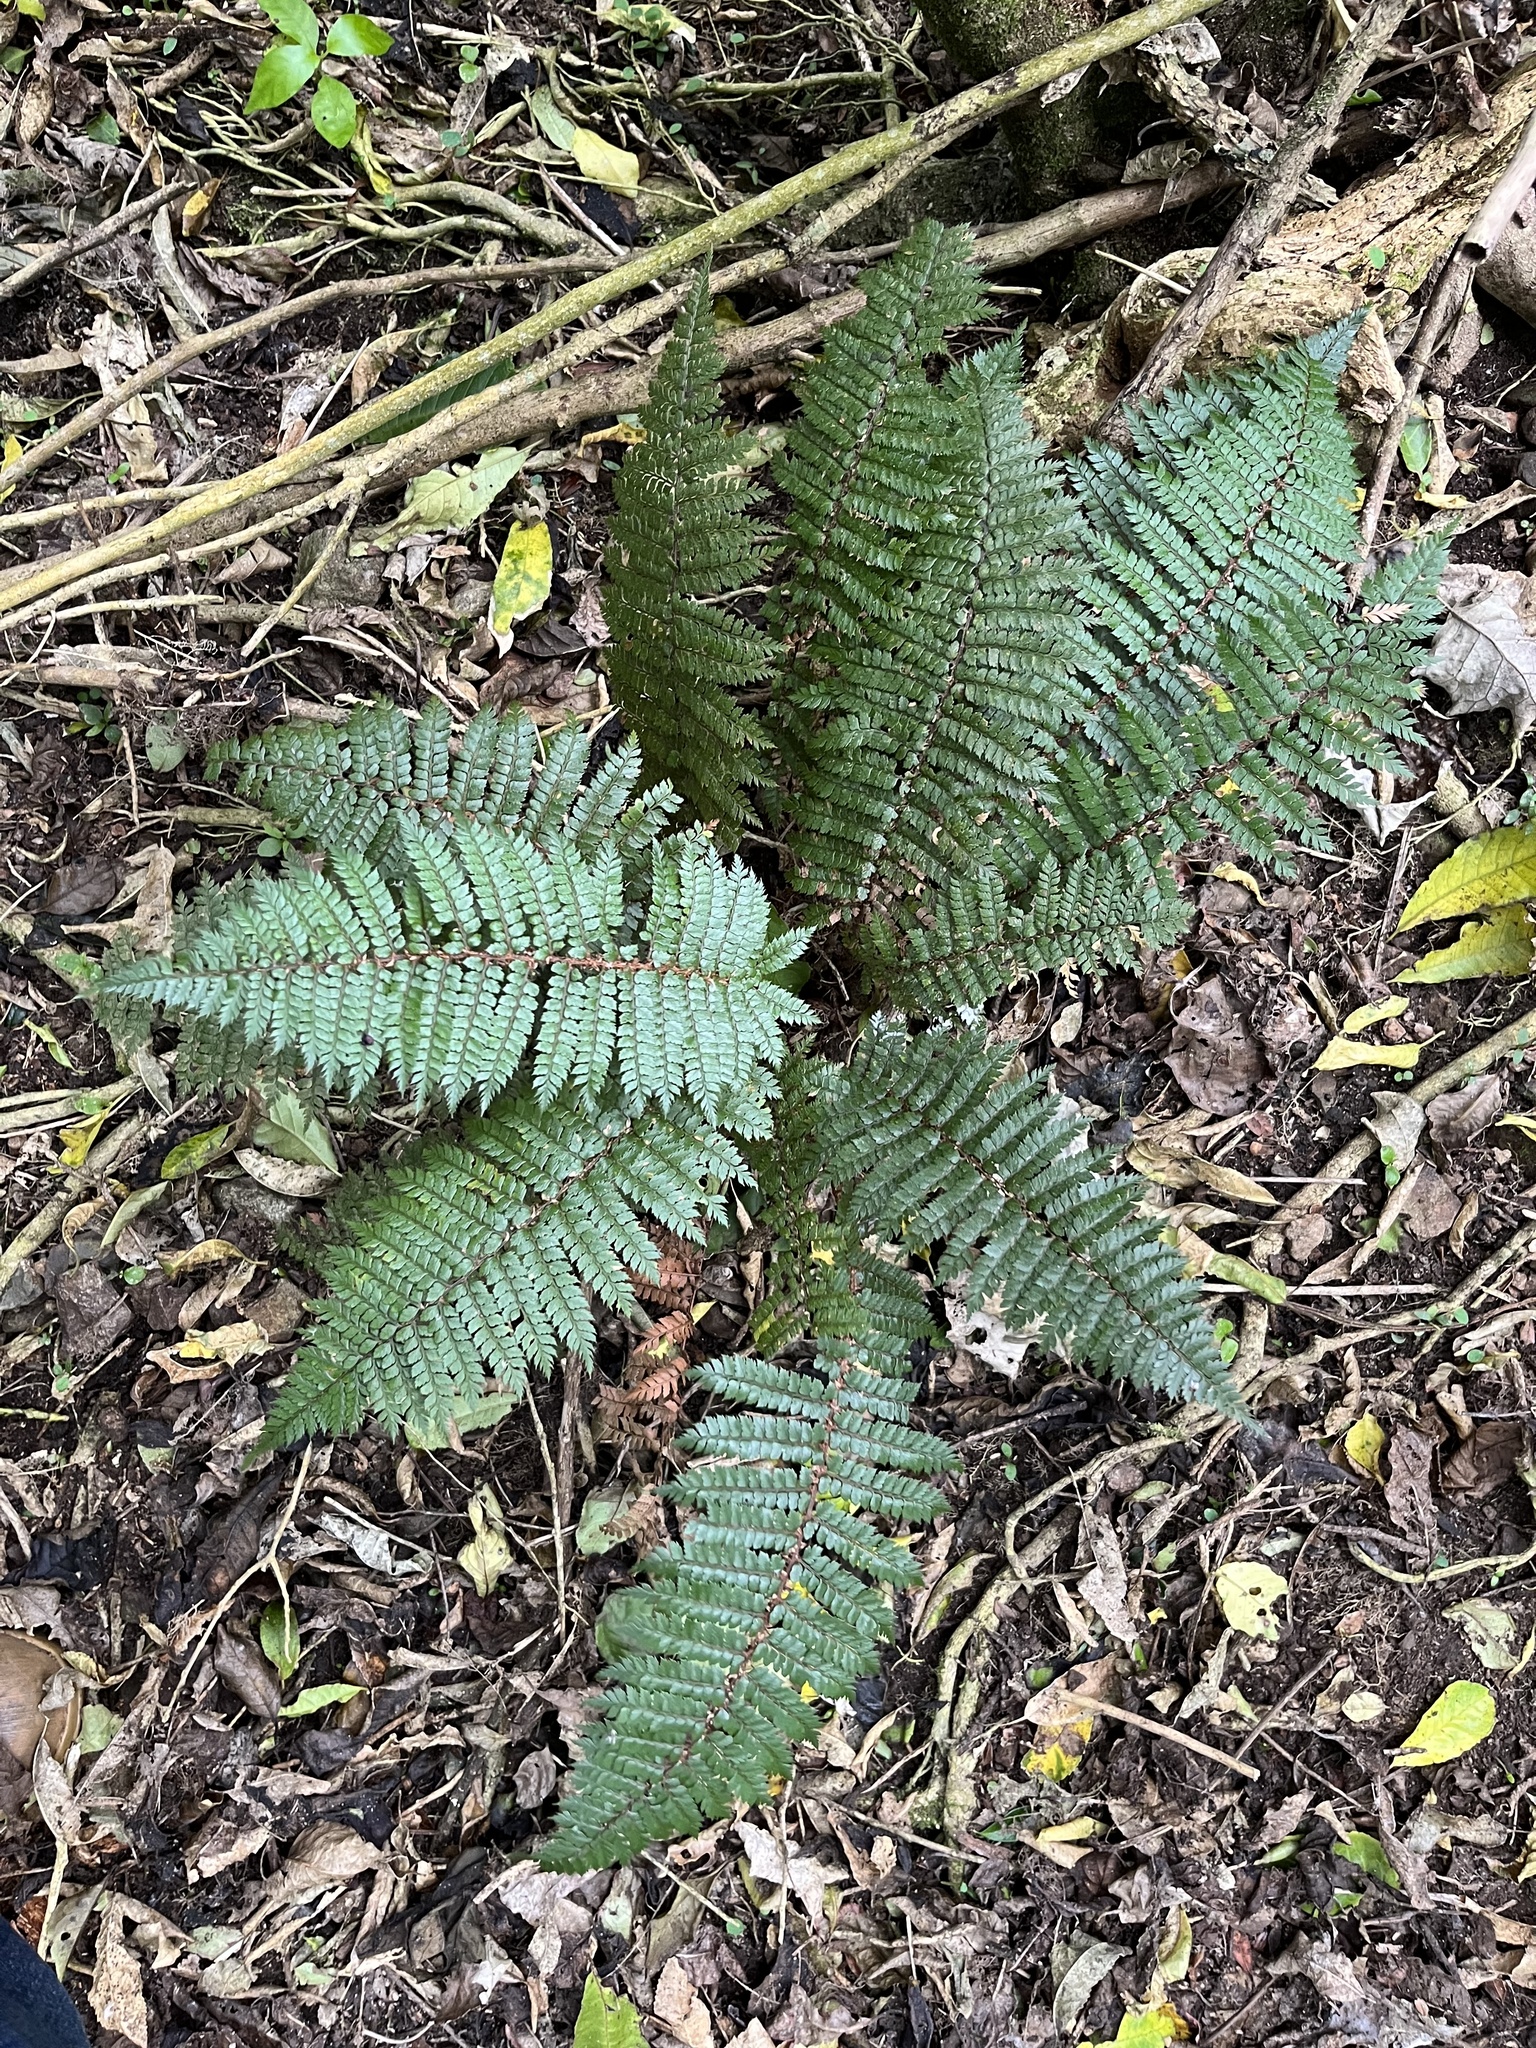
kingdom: Plantae
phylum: Tracheophyta
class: Polypodiopsida
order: Polypodiales
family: Dryopteridaceae
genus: Polystichum
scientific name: Polystichum vestitum
